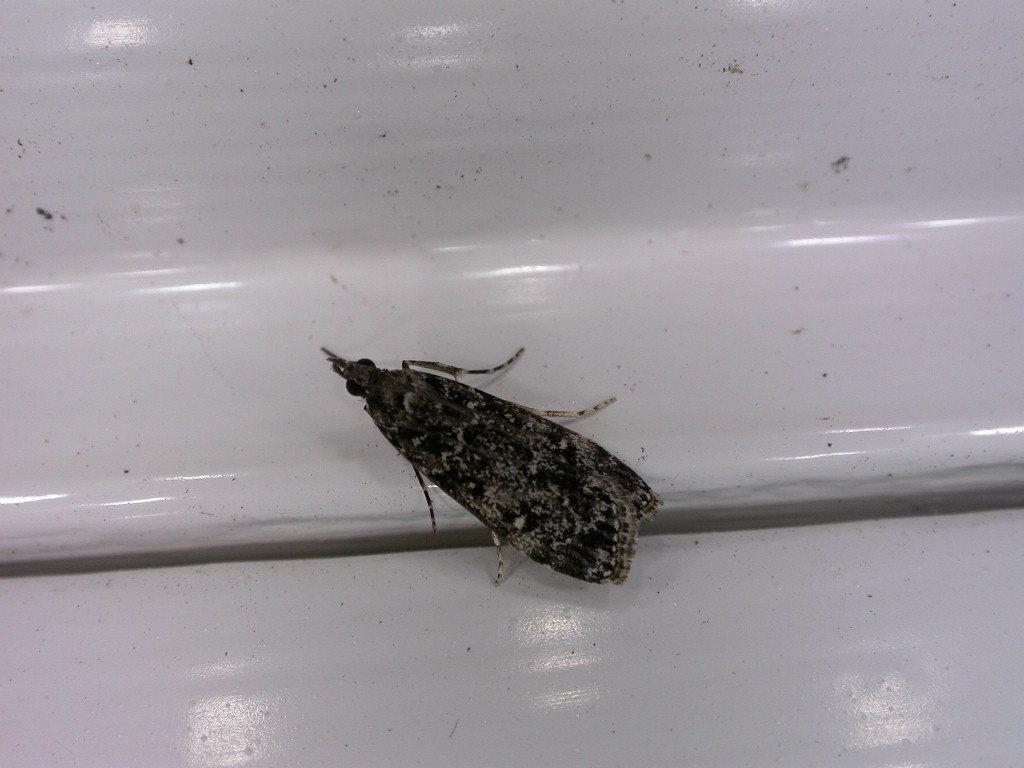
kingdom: Animalia
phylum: Arthropoda
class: Insecta
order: Lepidoptera
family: Crambidae
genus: Eudonia
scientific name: Eudonia philerga
